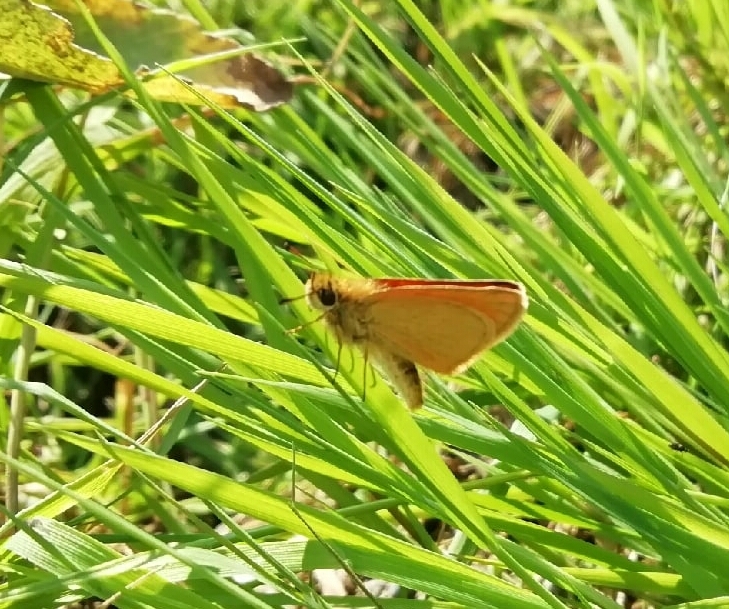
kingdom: Animalia
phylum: Arthropoda
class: Insecta
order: Lepidoptera
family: Hesperiidae
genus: Thymelicus
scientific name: Thymelicus lineola
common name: Essex skipper
